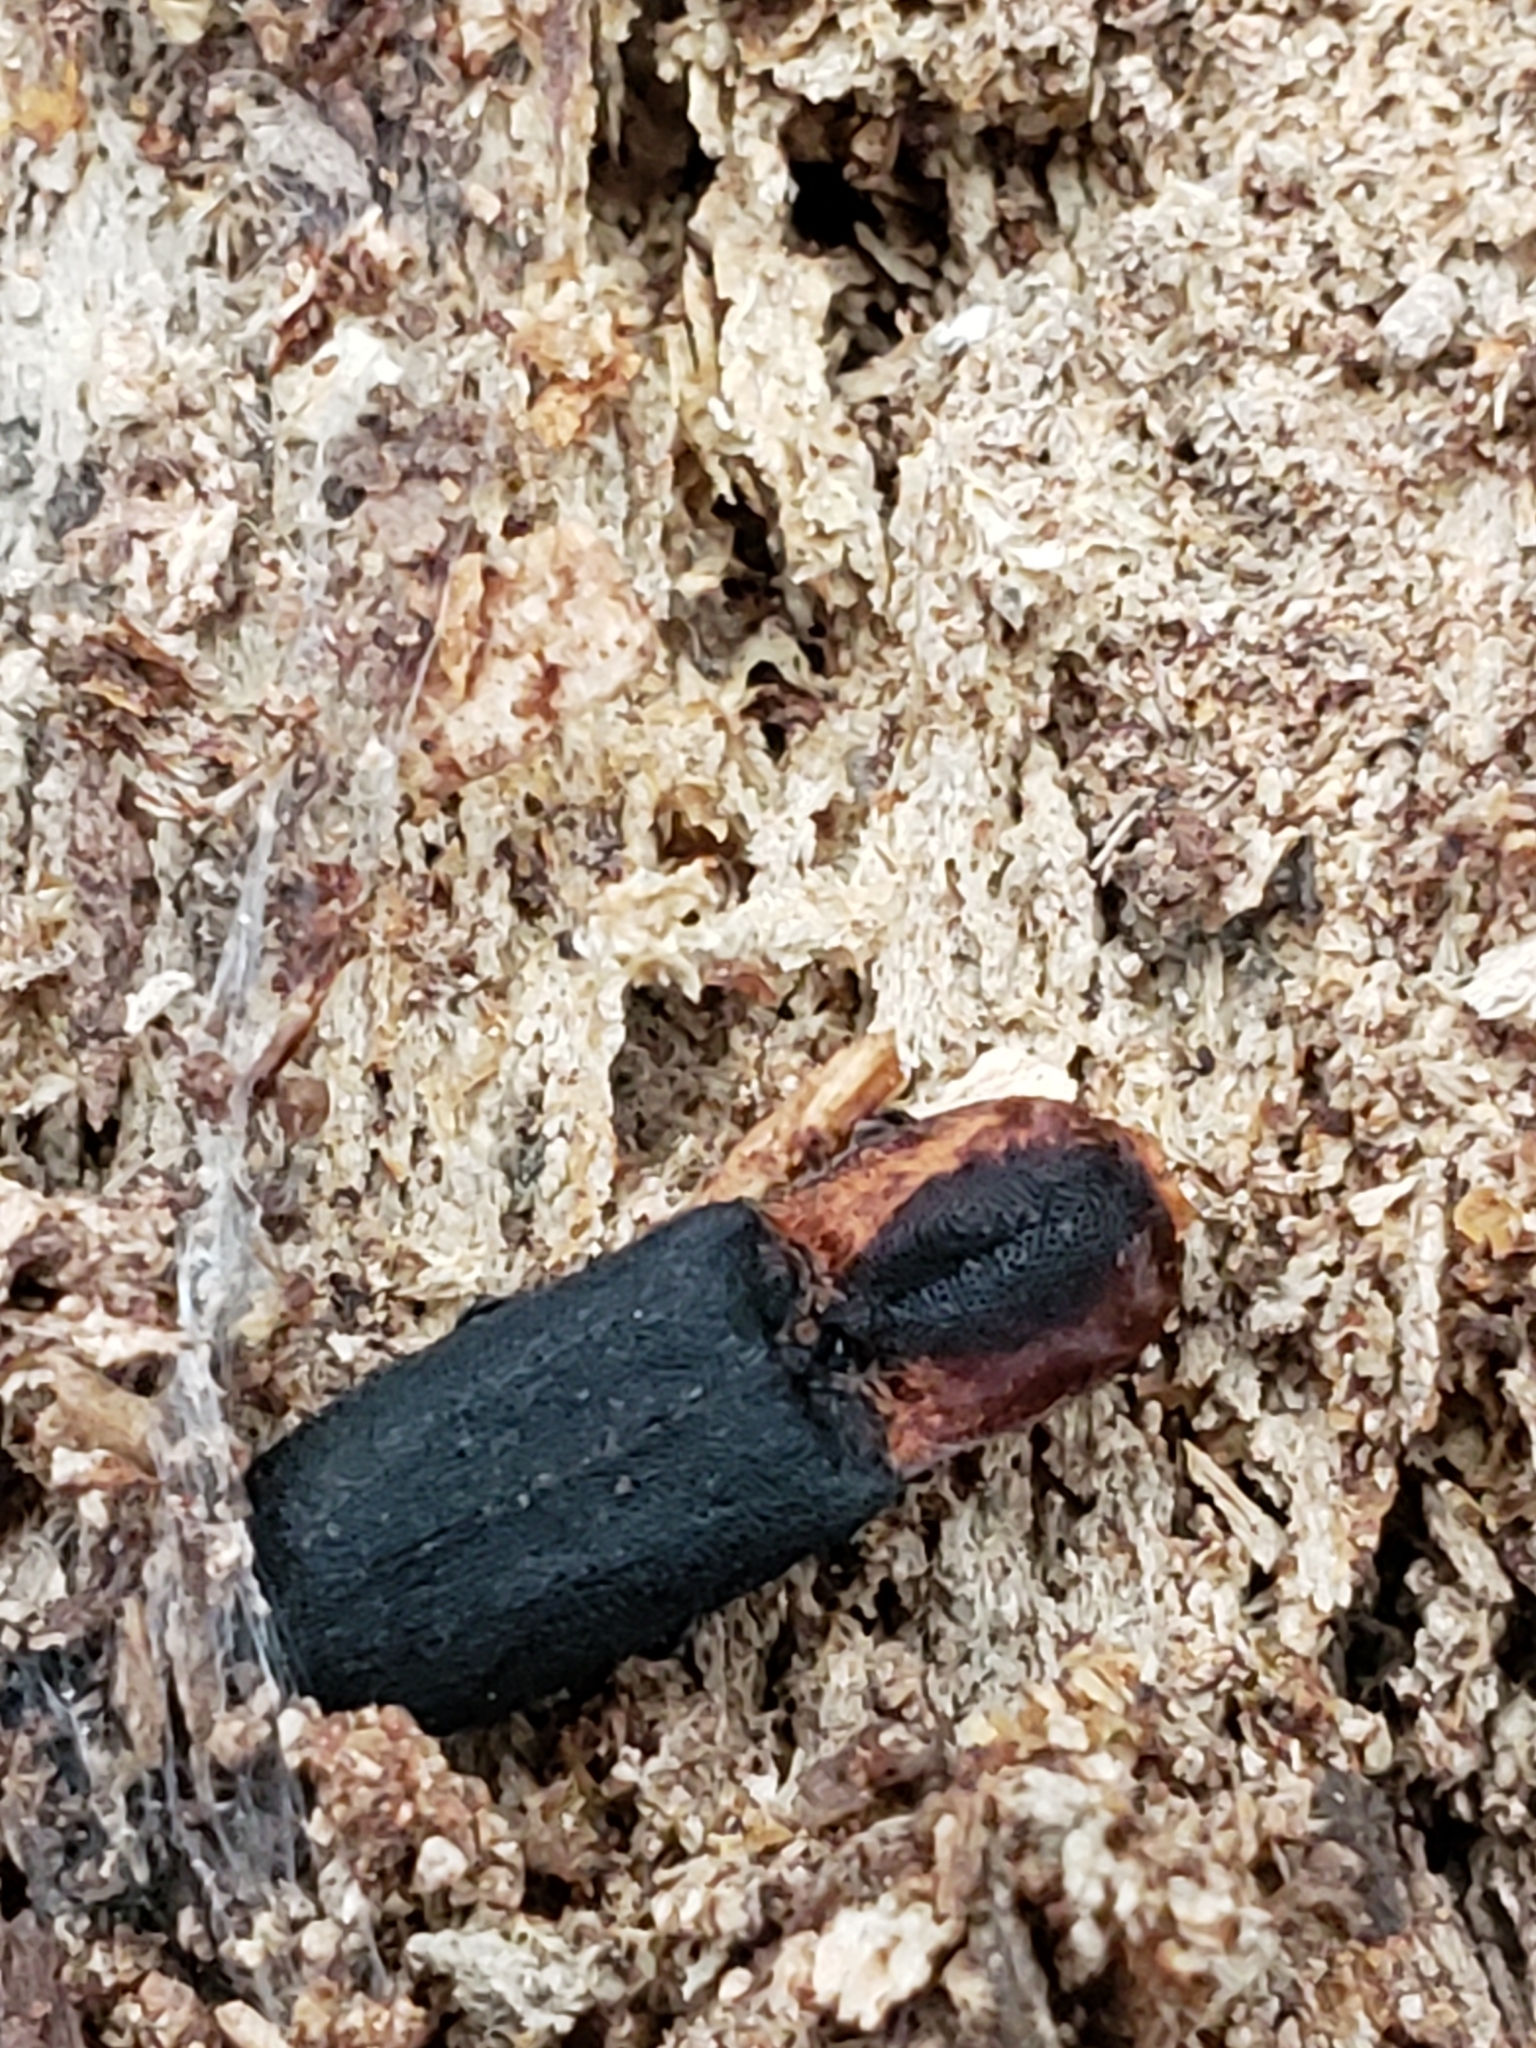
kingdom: Animalia
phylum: Arthropoda
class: Insecta
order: Coleoptera
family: Elateridae
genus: Lacon
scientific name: Lacon discoideus
